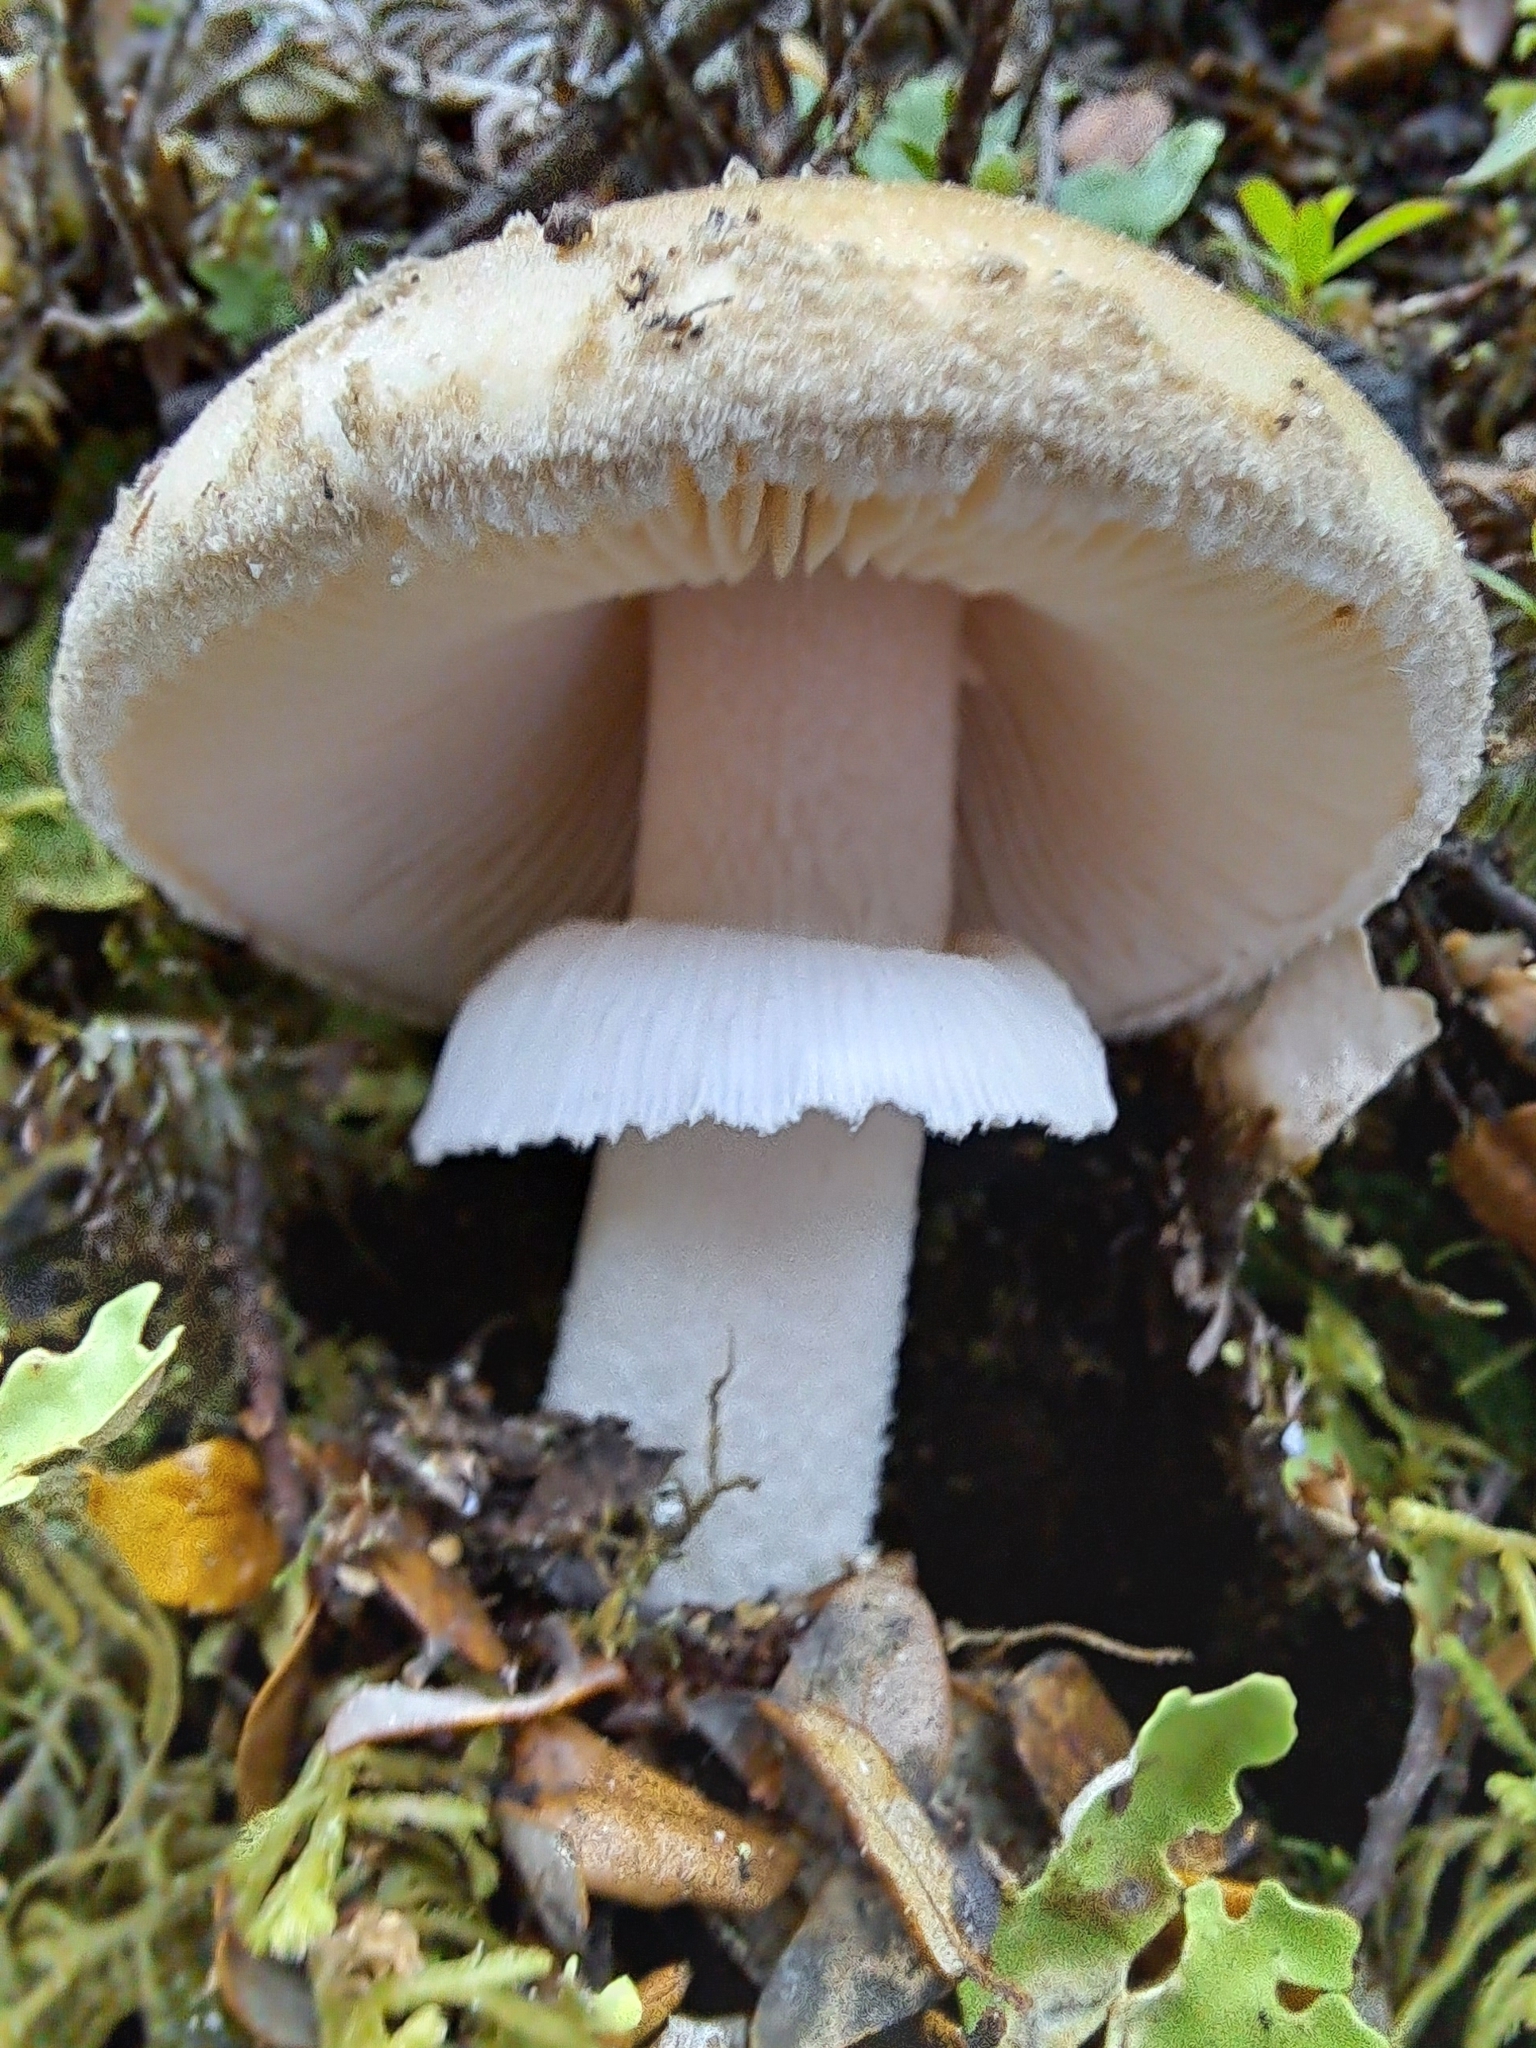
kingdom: Fungi
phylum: Basidiomycota
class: Agaricomycetes
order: Agaricales
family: Amanitaceae
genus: Amanita
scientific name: Amanita australis
